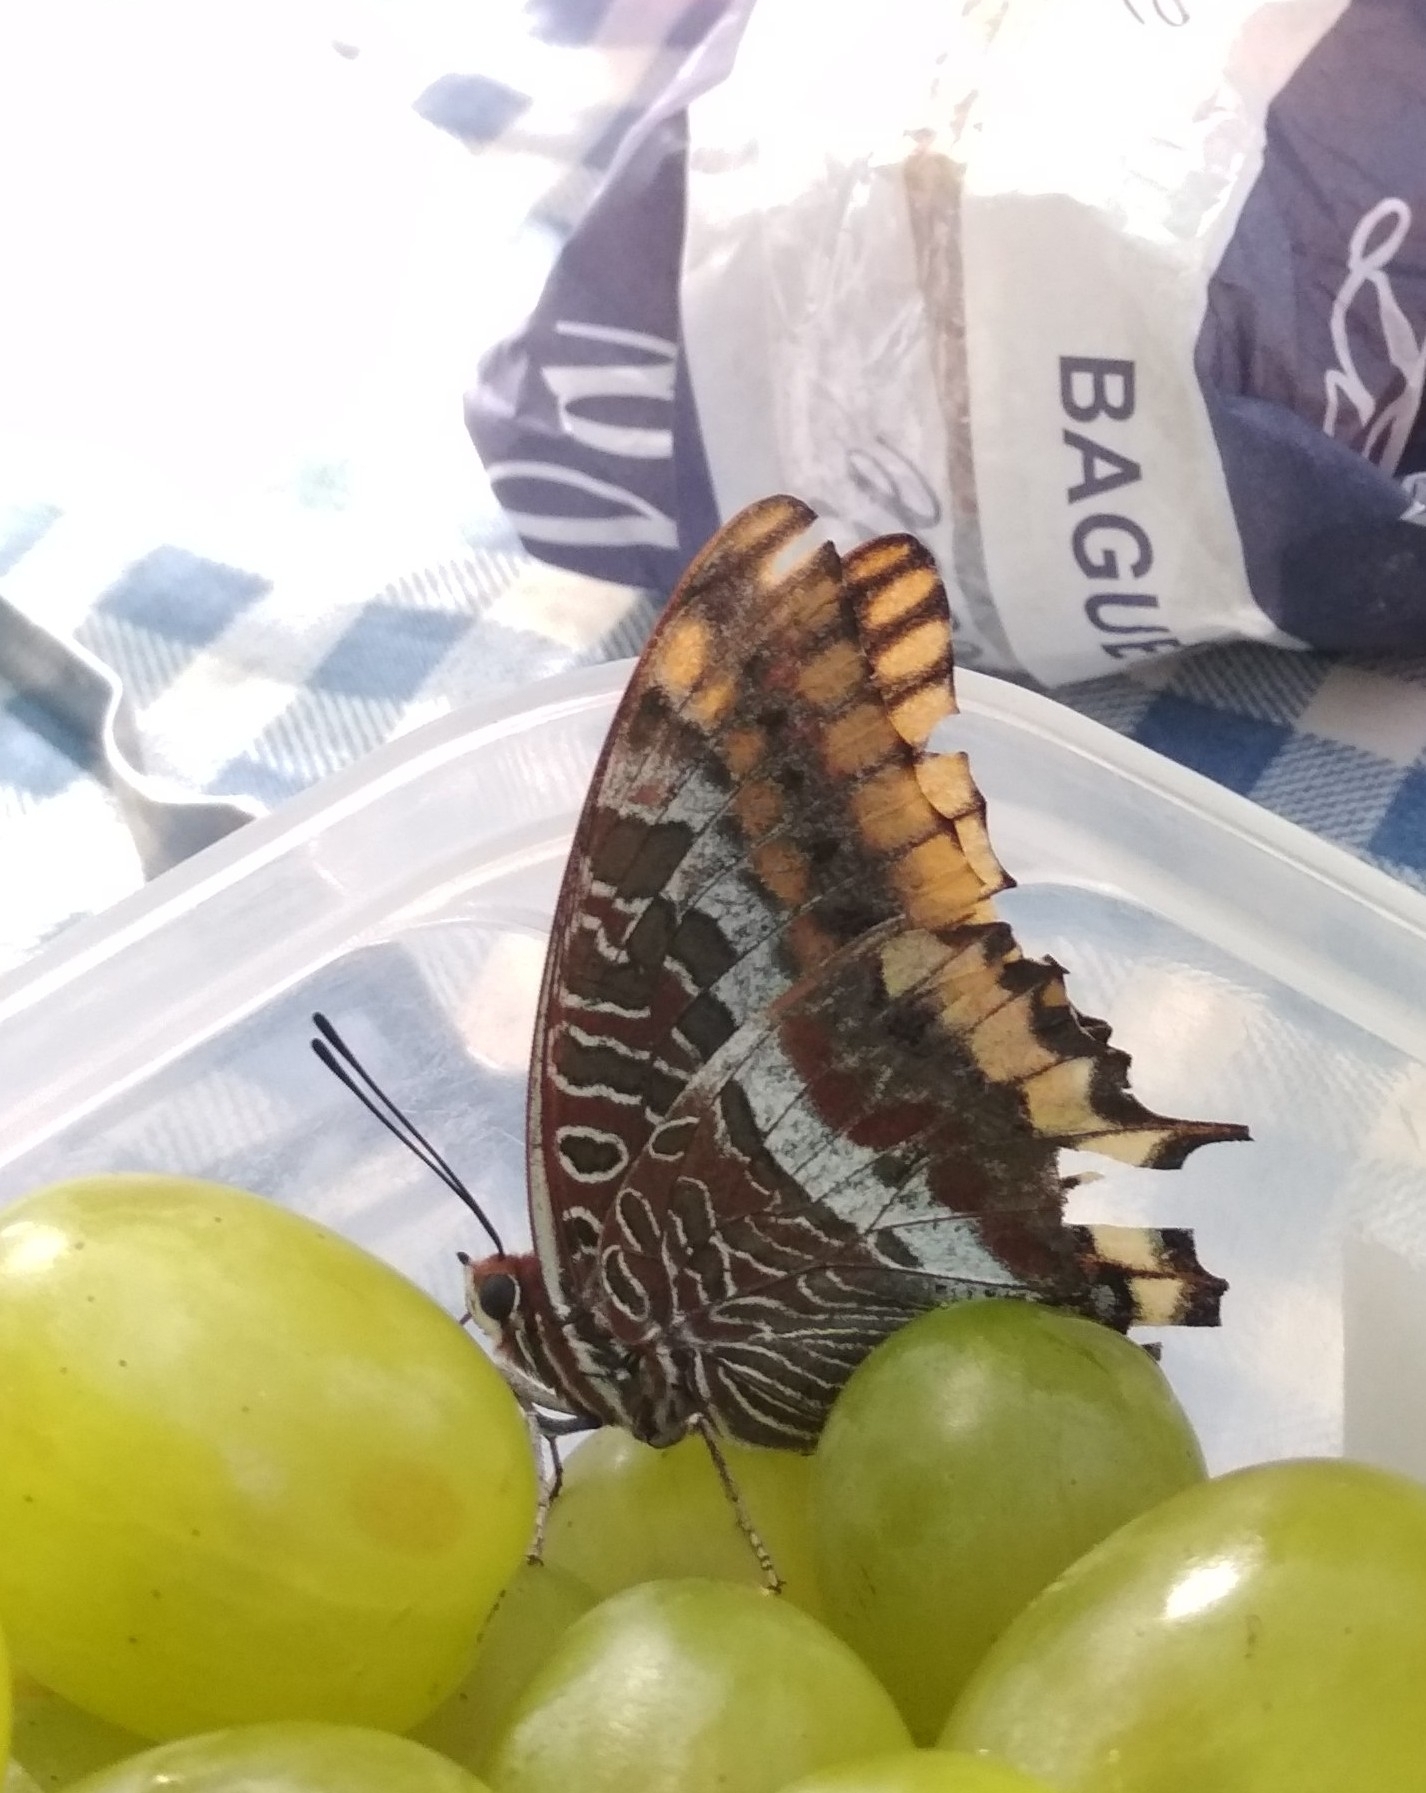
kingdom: Animalia
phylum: Arthropoda
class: Insecta
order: Lepidoptera
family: Nymphalidae
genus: Charaxes
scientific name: Charaxes jasius
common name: Two tailed pasha
